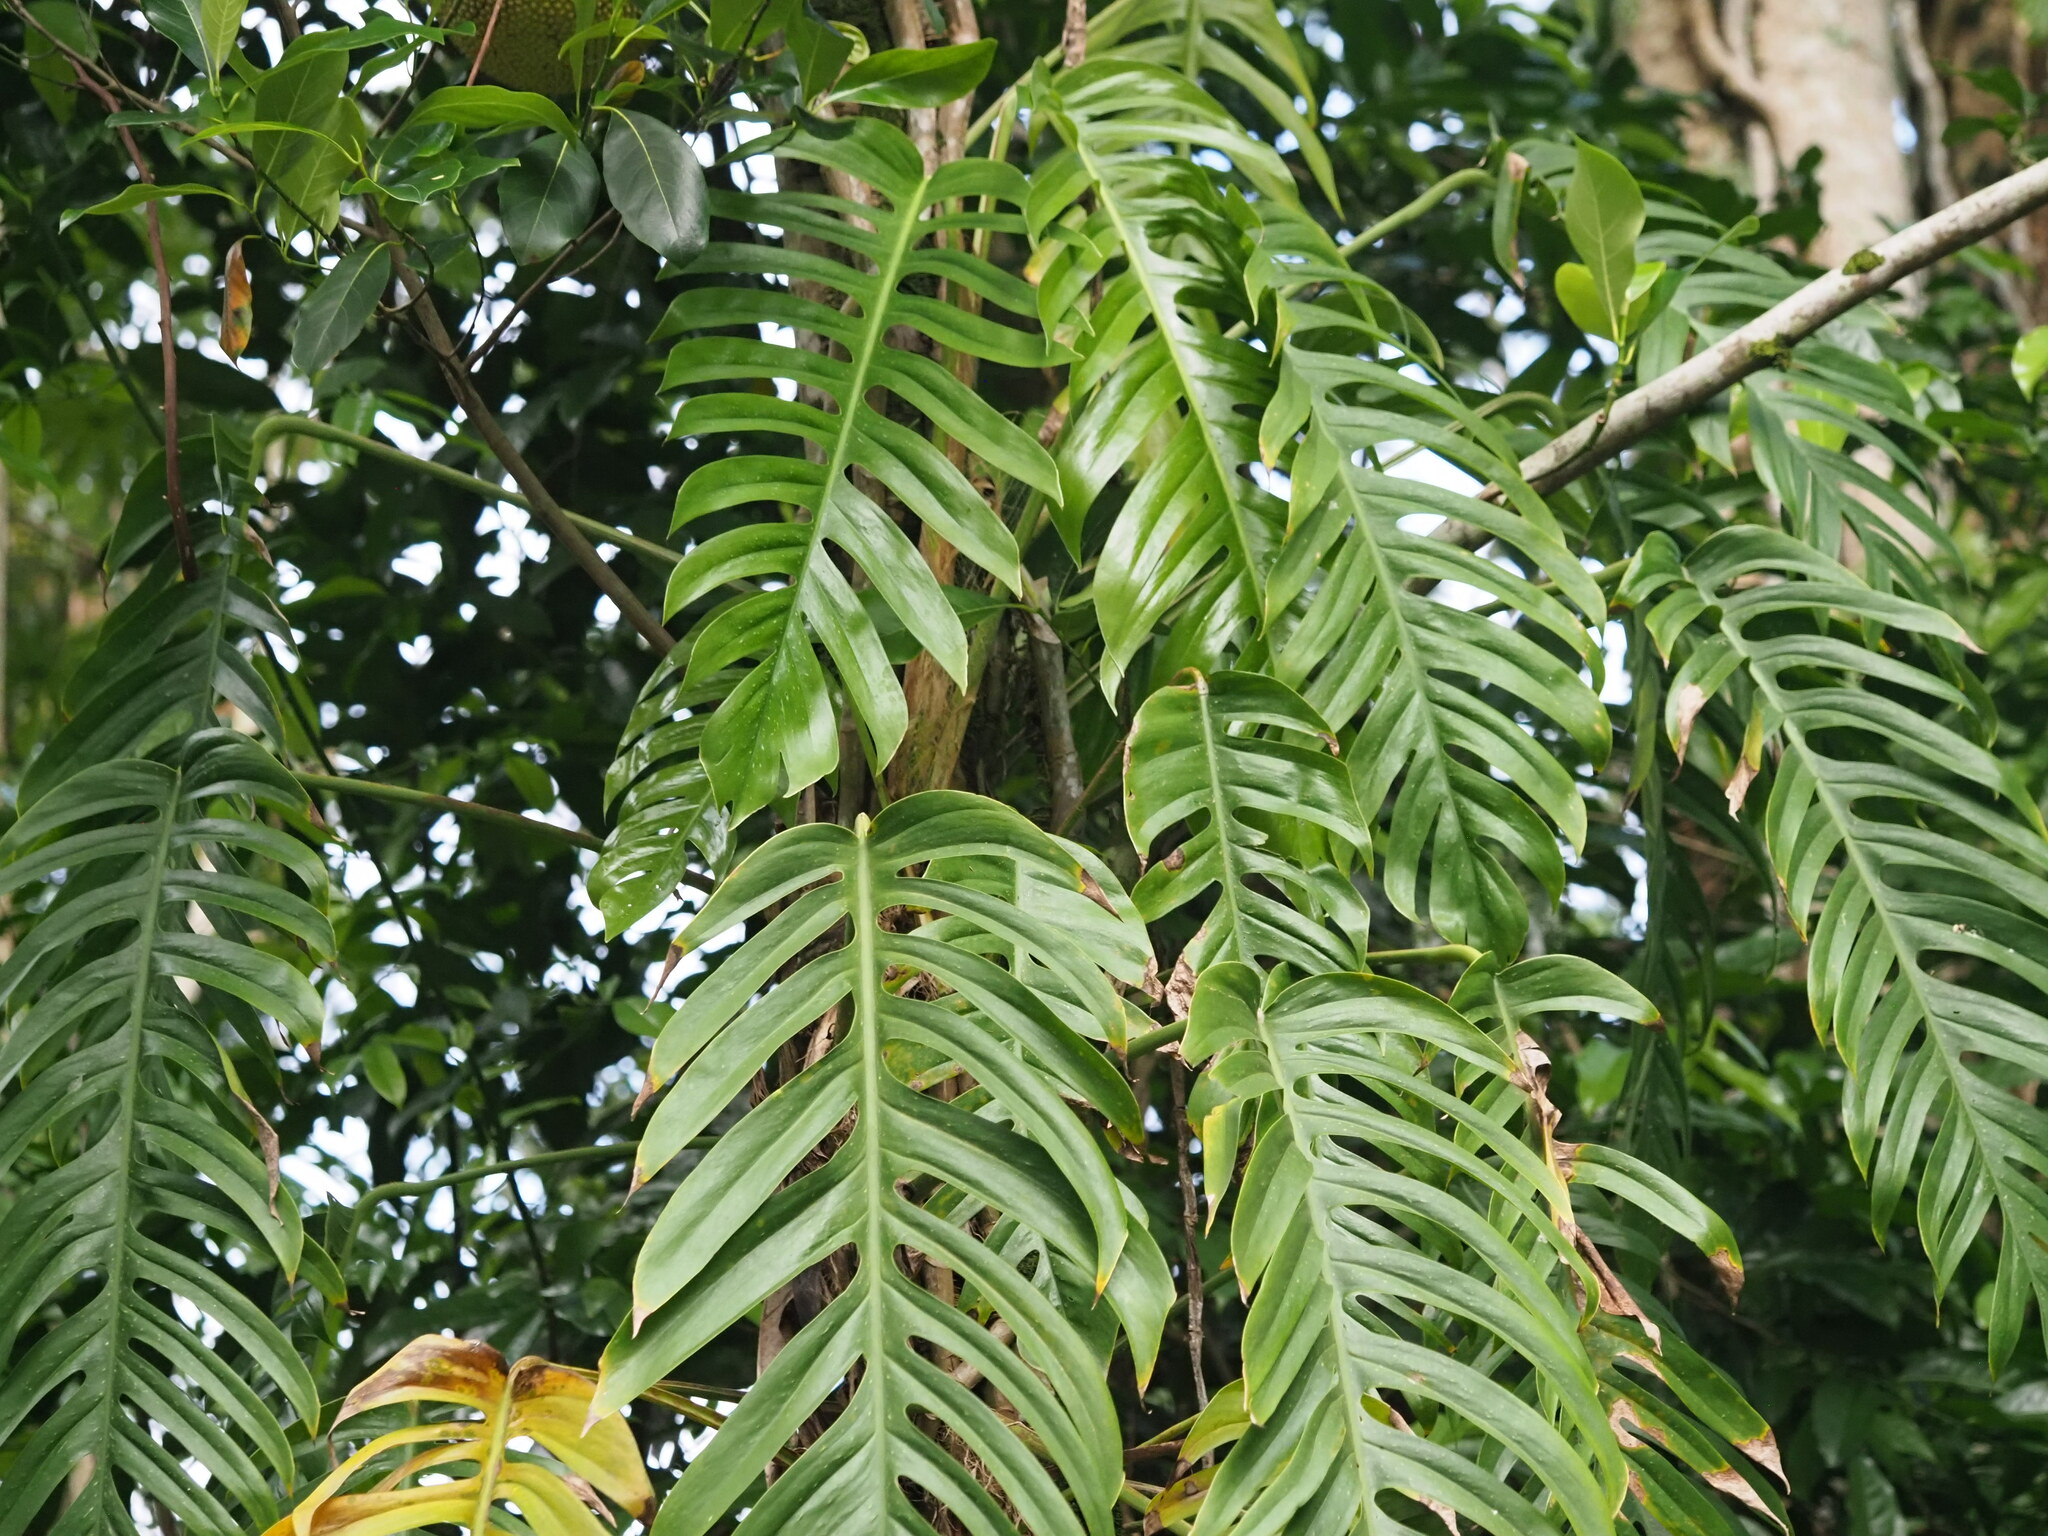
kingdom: Plantae
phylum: Tracheophyta
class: Liliopsida
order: Alismatales
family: Araceae
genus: Epipremnum
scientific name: Epipremnum pinnatum
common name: Centipede tongavine
